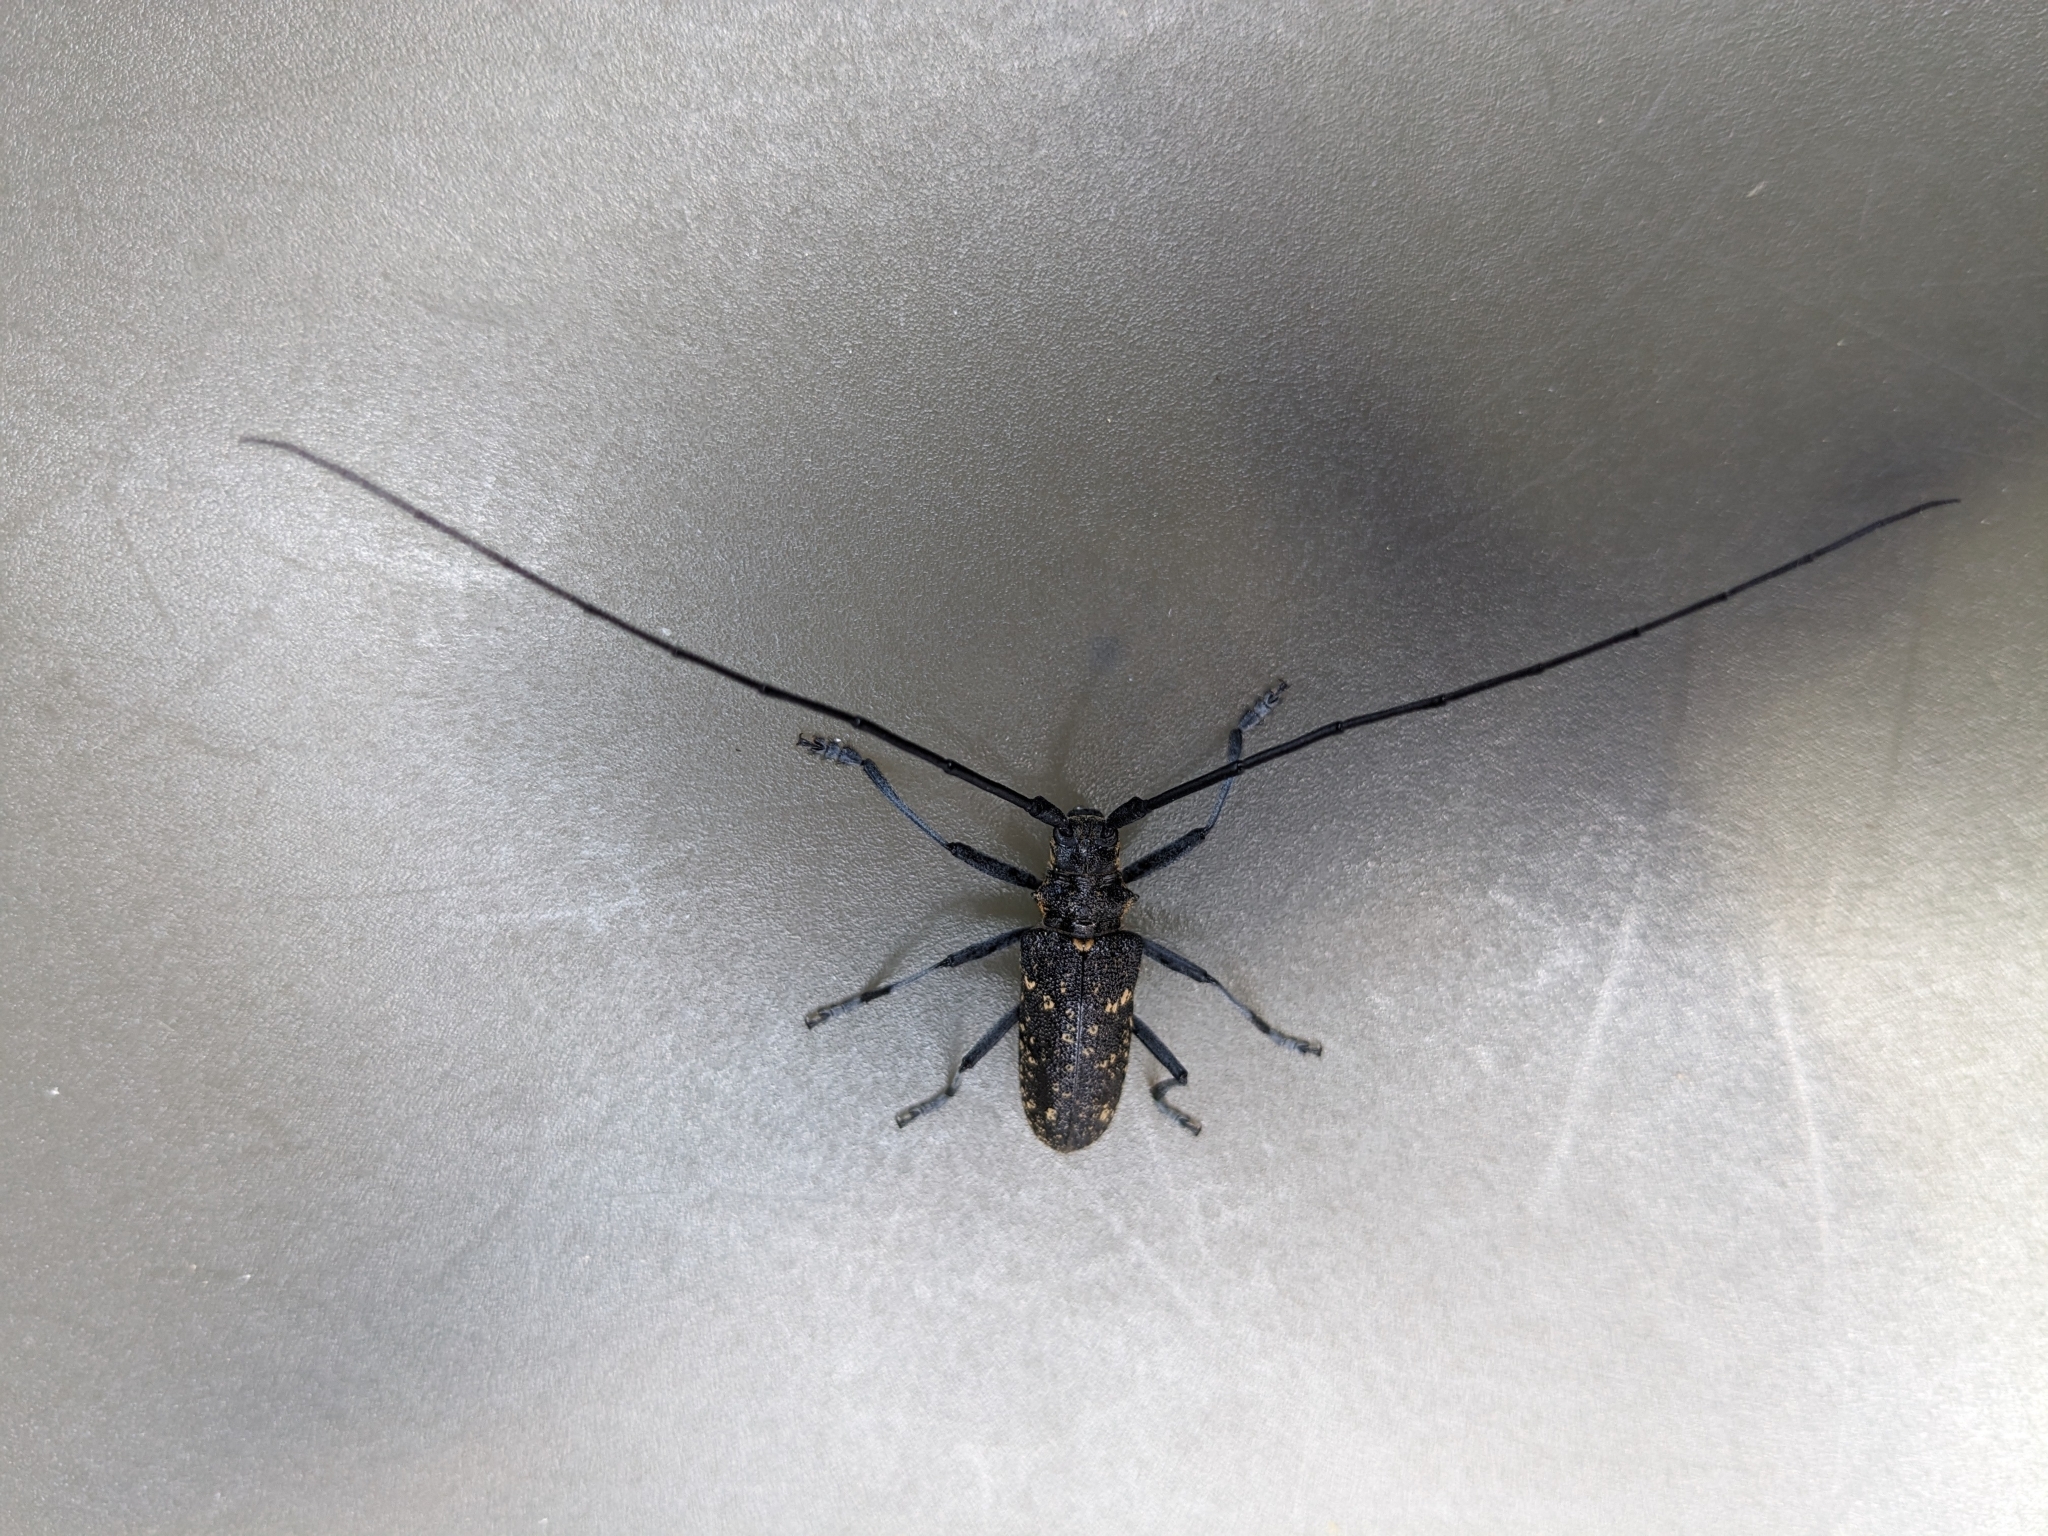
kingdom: Animalia
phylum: Arthropoda
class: Insecta
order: Coleoptera
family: Cerambycidae
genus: Monochamus
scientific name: Monochamus sutor
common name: Pine sawyer
